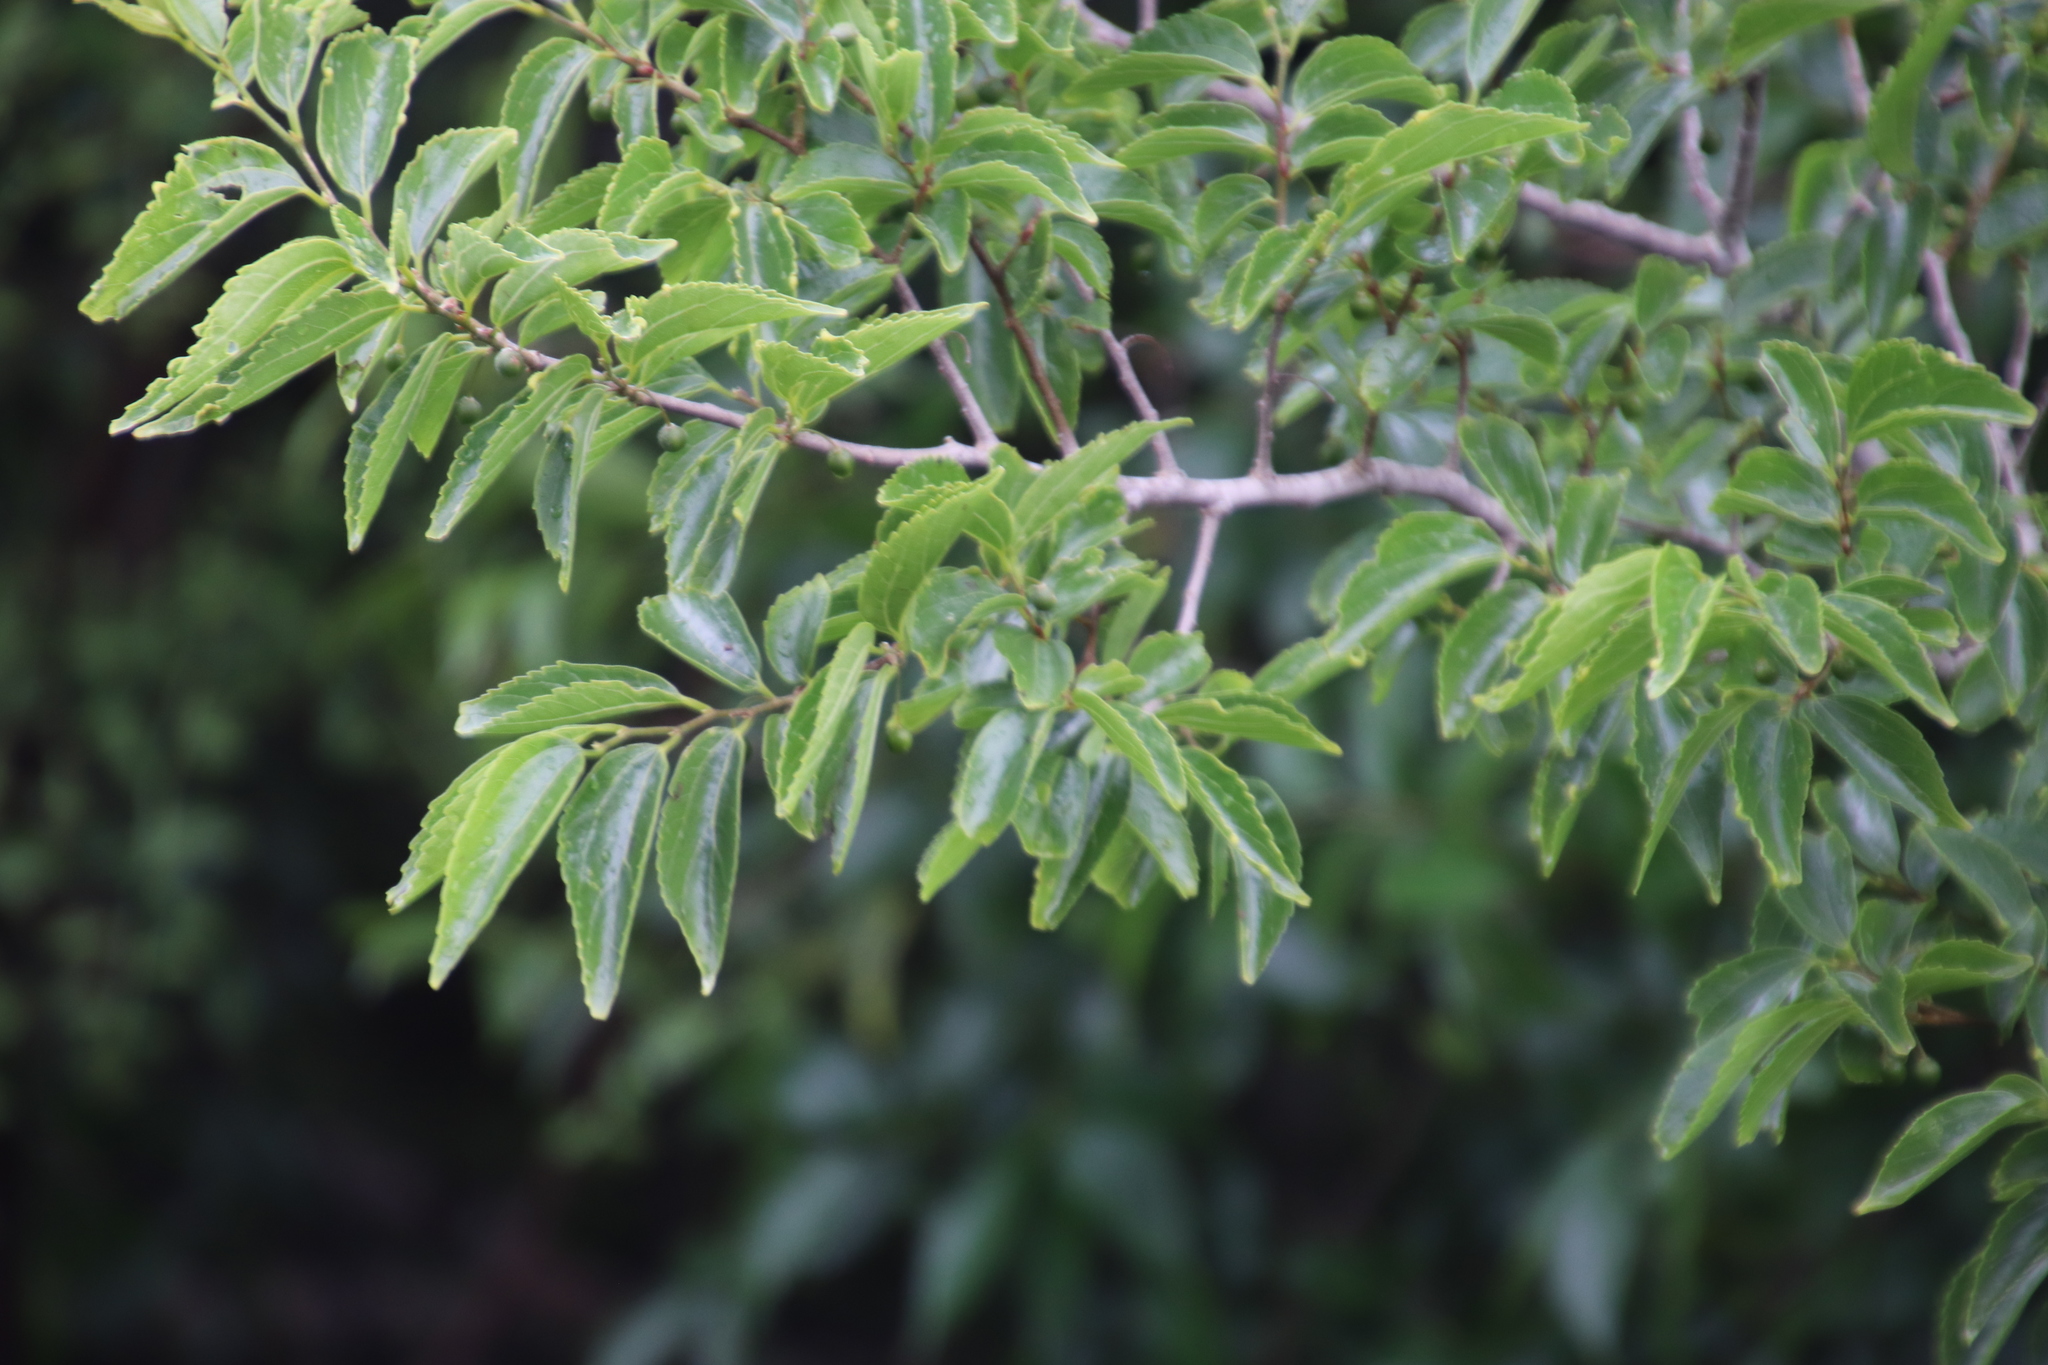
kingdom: Plantae
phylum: Tracheophyta
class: Magnoliopsida
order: Malvales
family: Malvaceae
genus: Grewia
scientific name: Grewia occidentalis
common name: Crossberry
